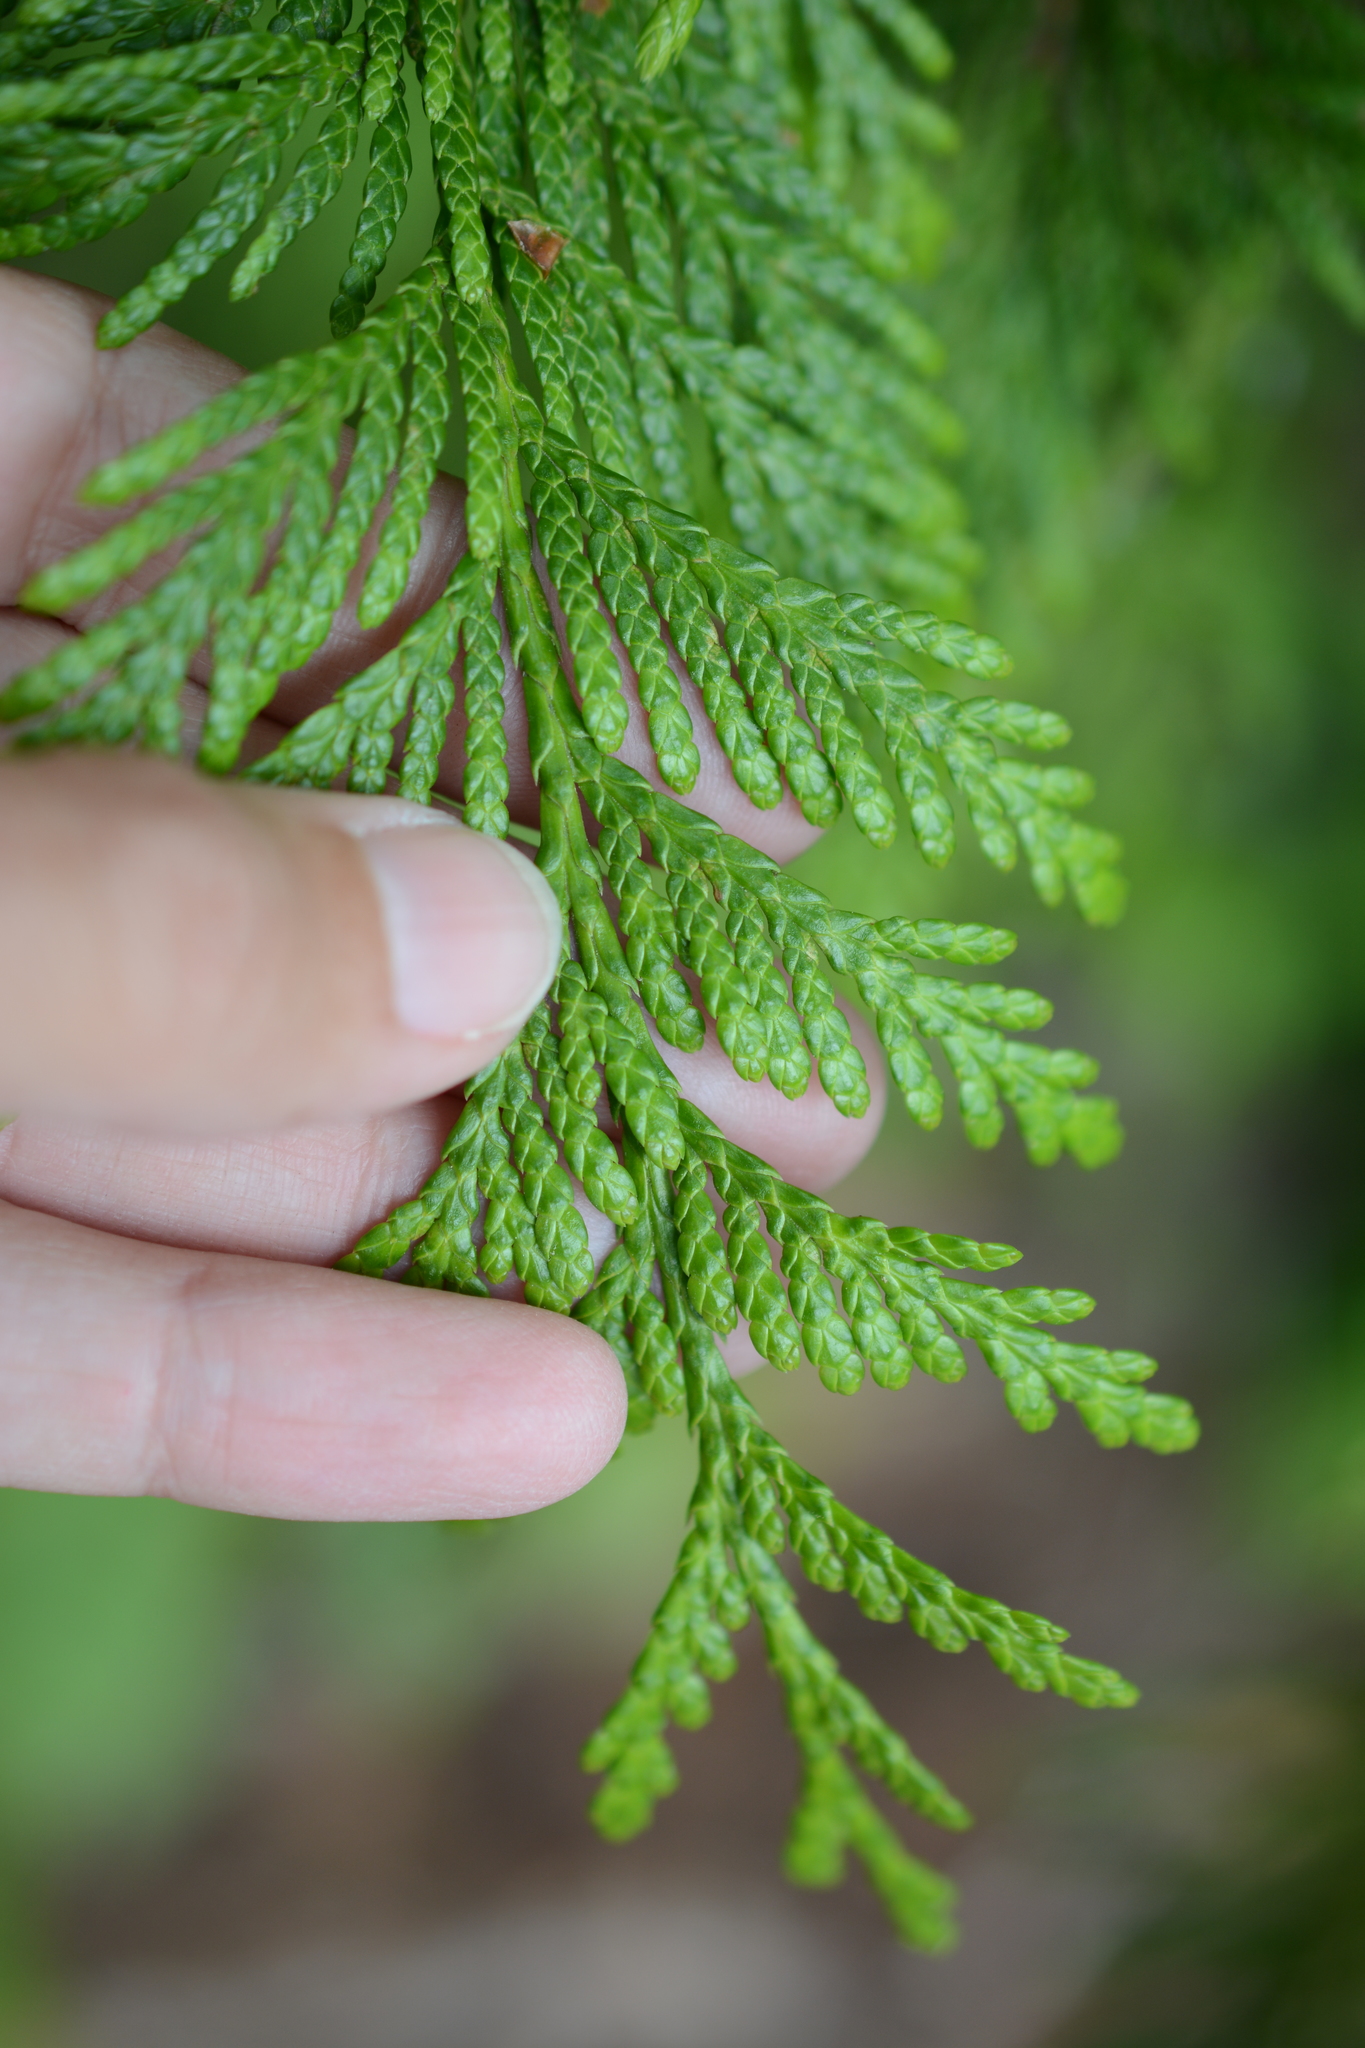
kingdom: Plantae
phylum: Tracheophyta
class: Pinopsida
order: Pinales
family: Cupressaceae
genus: Thuja
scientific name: Thuja plicata
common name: Western red-cedar
